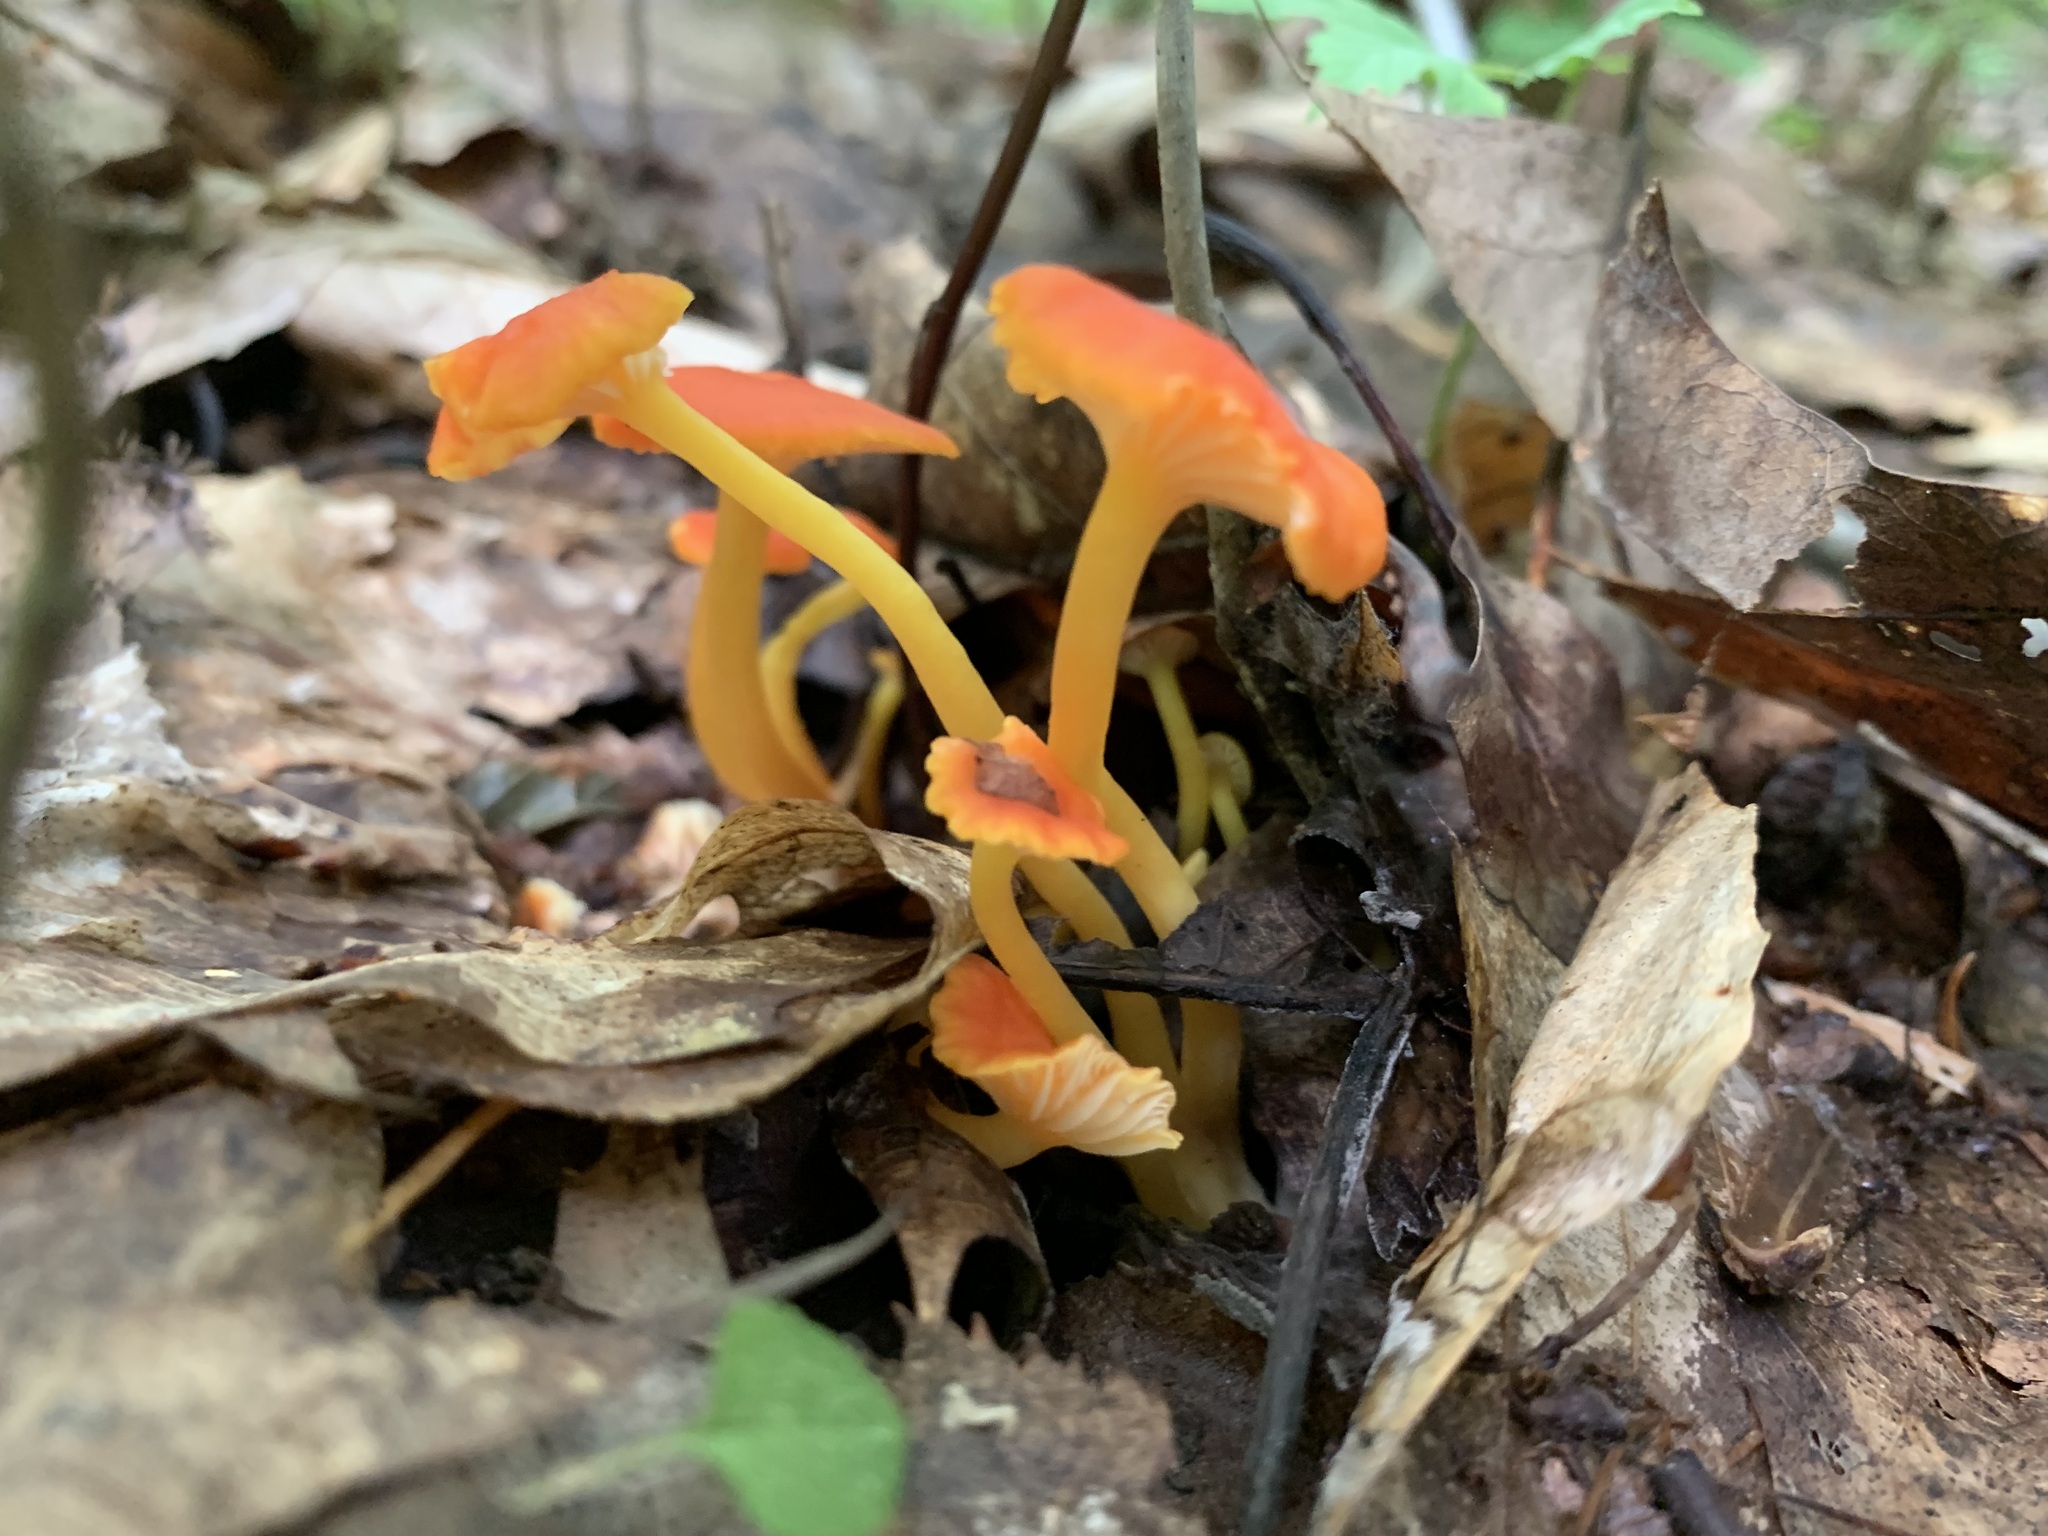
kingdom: Fungi
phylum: Basidiomycota
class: Agaricomycetes
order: Agaricales
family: Hygrophoraceae
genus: Hygrocybe
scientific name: Hygrocybe cantharellus
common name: Goblet waxcap
